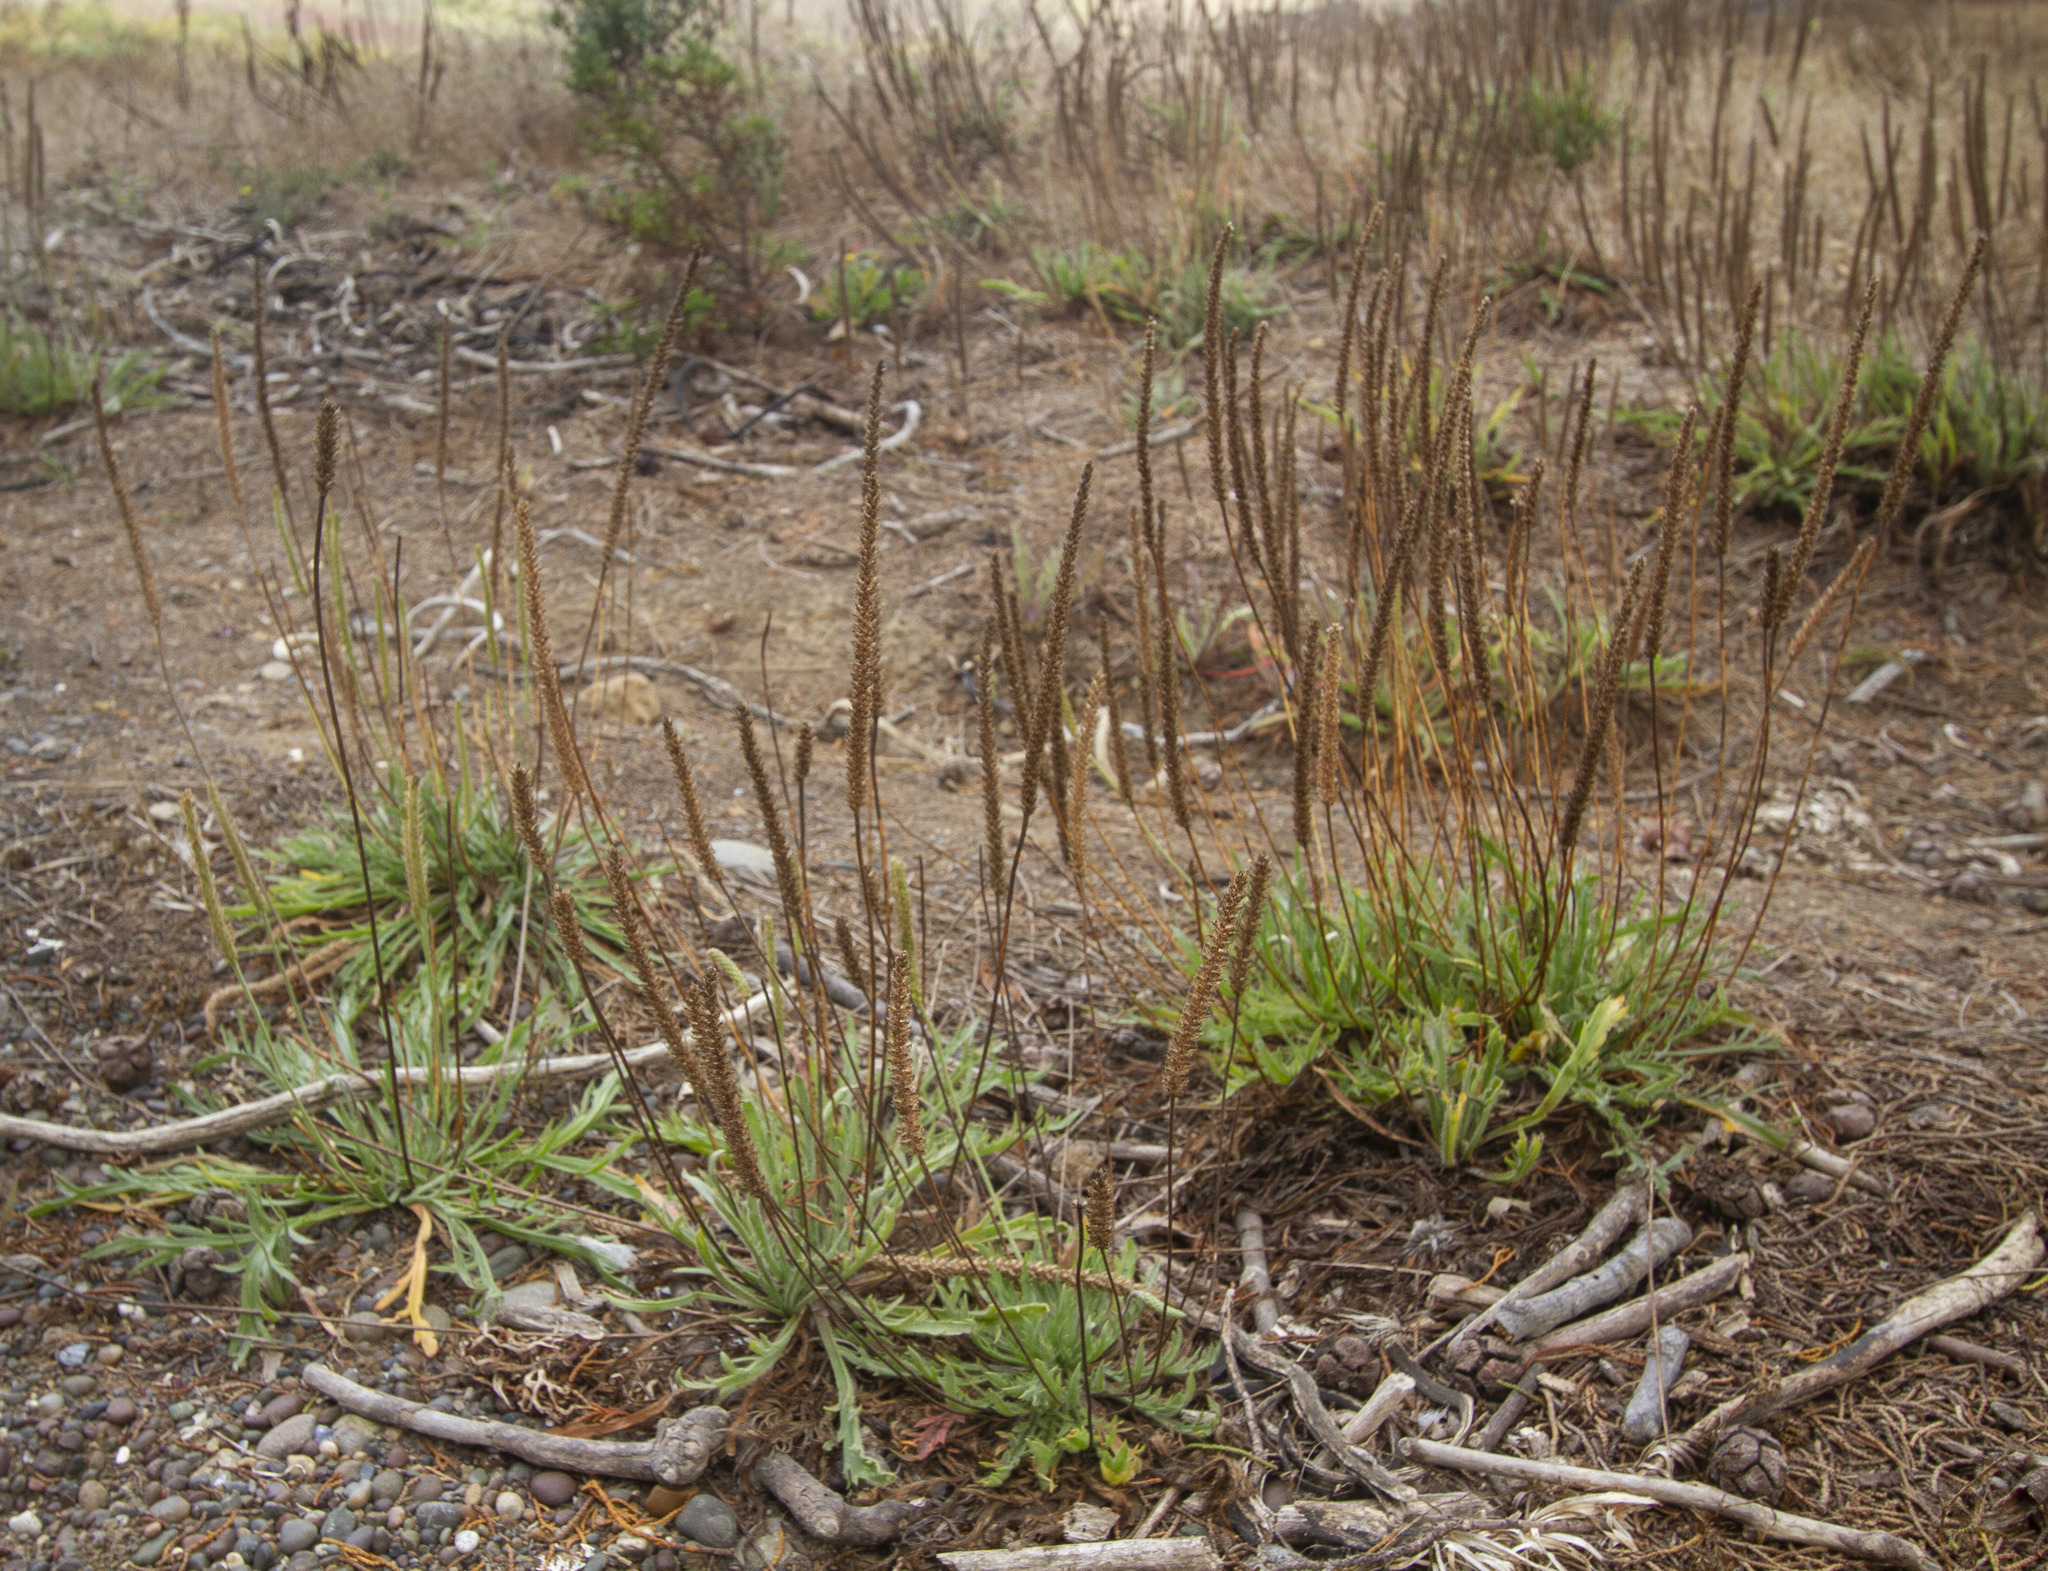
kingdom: Plantae
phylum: Tracheophyta
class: Magnoliopsida
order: Lamiales
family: Plantaginaceae
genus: Plantago
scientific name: Plantago coronopus
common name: Buck's-horn plantain
